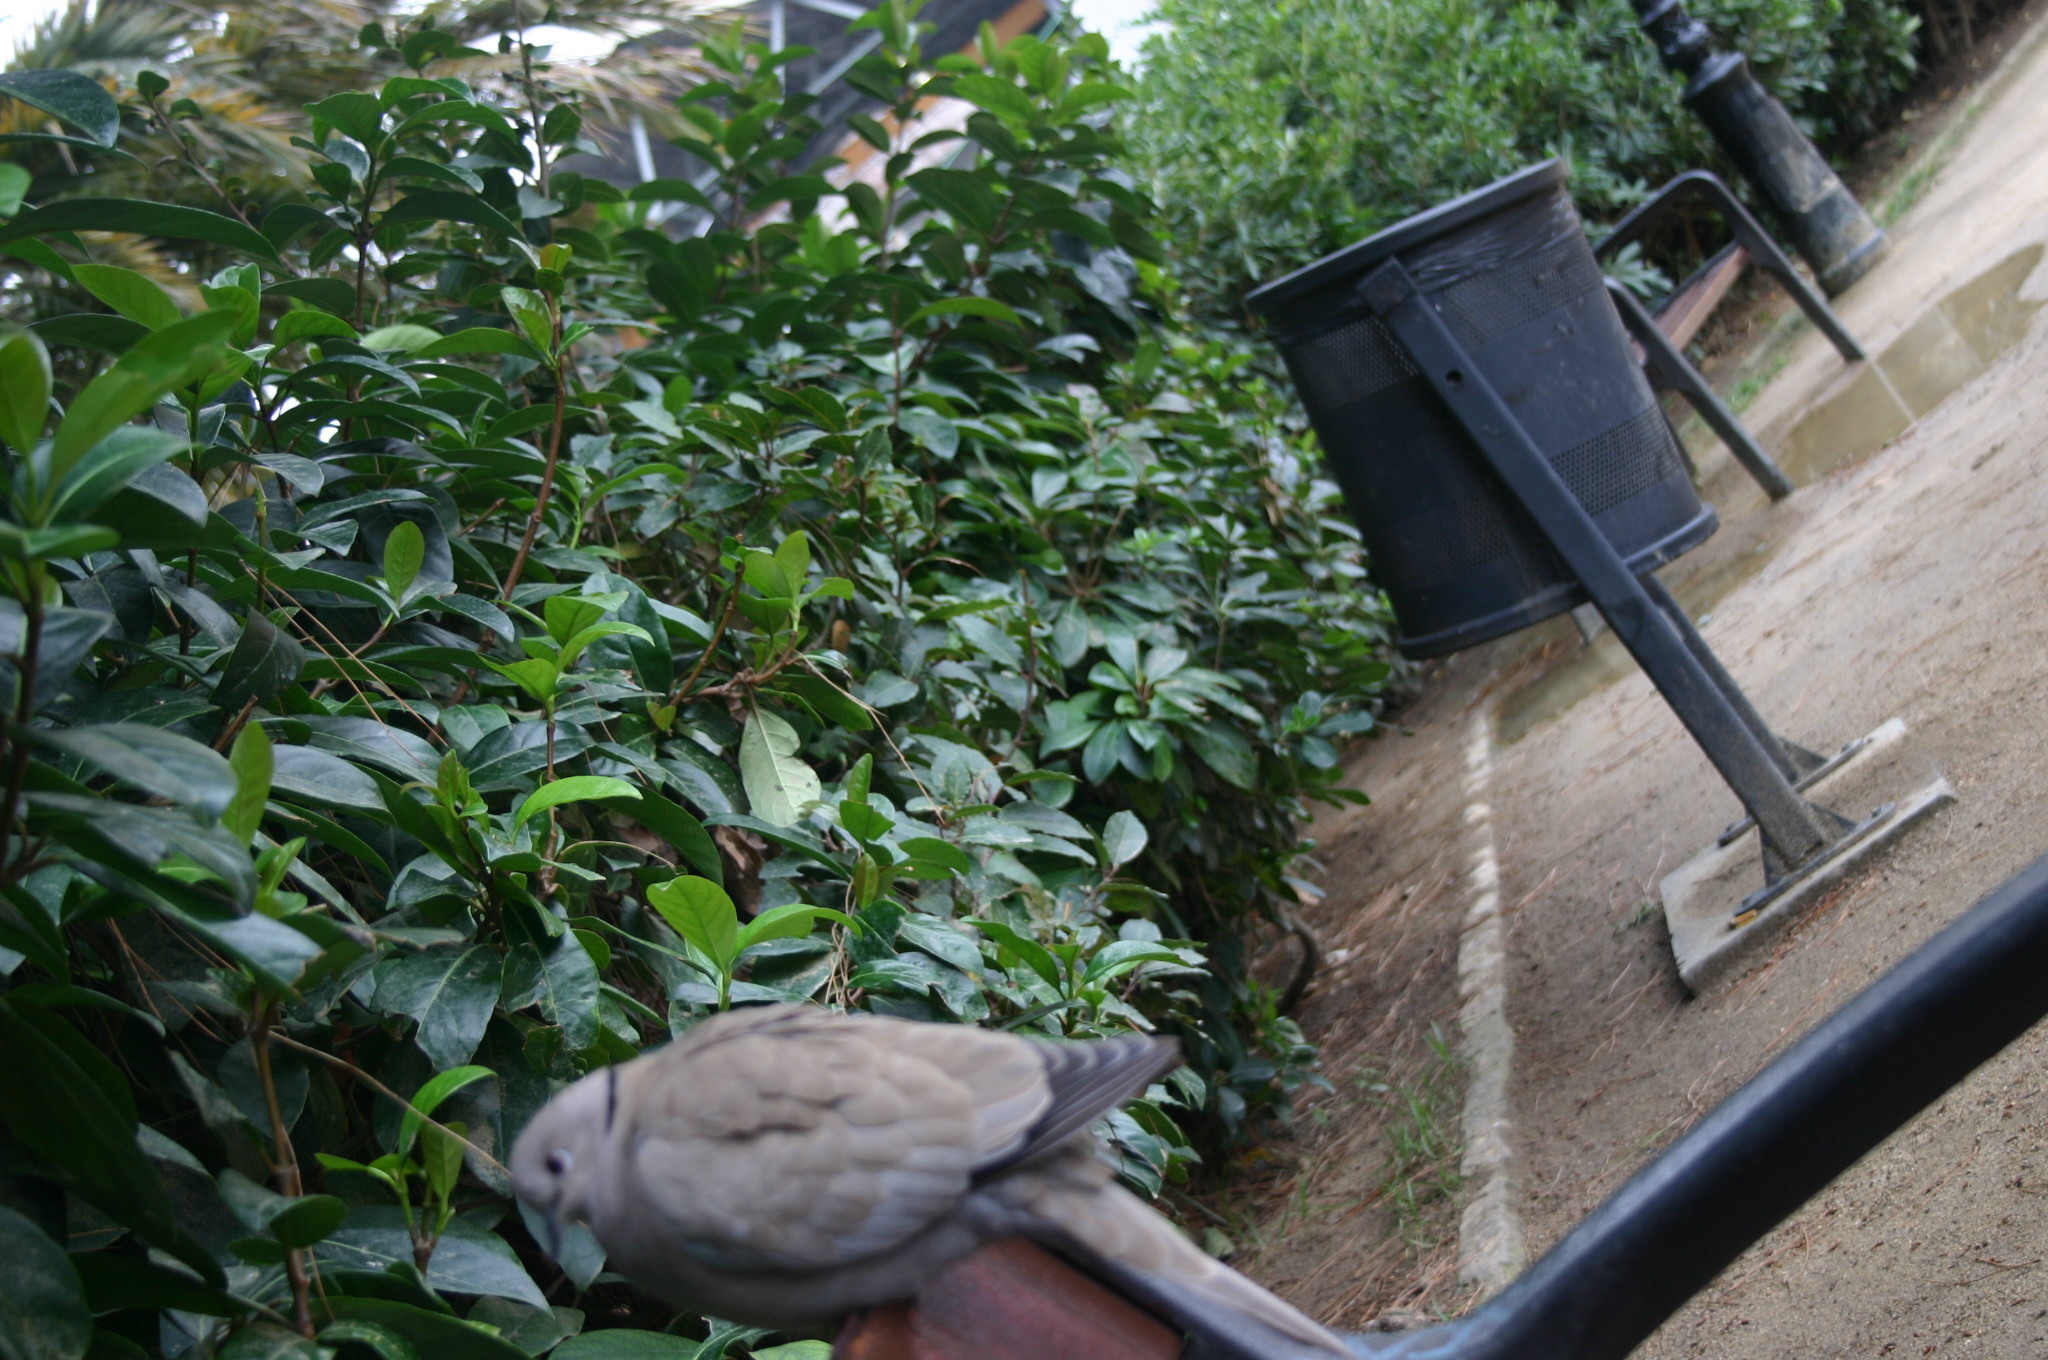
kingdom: Animalia
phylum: Chordata
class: Aves
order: Columbiformes
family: Columbidae
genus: Streptopelia
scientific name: Streptopelia decaocto
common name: Eurasian collared dove
